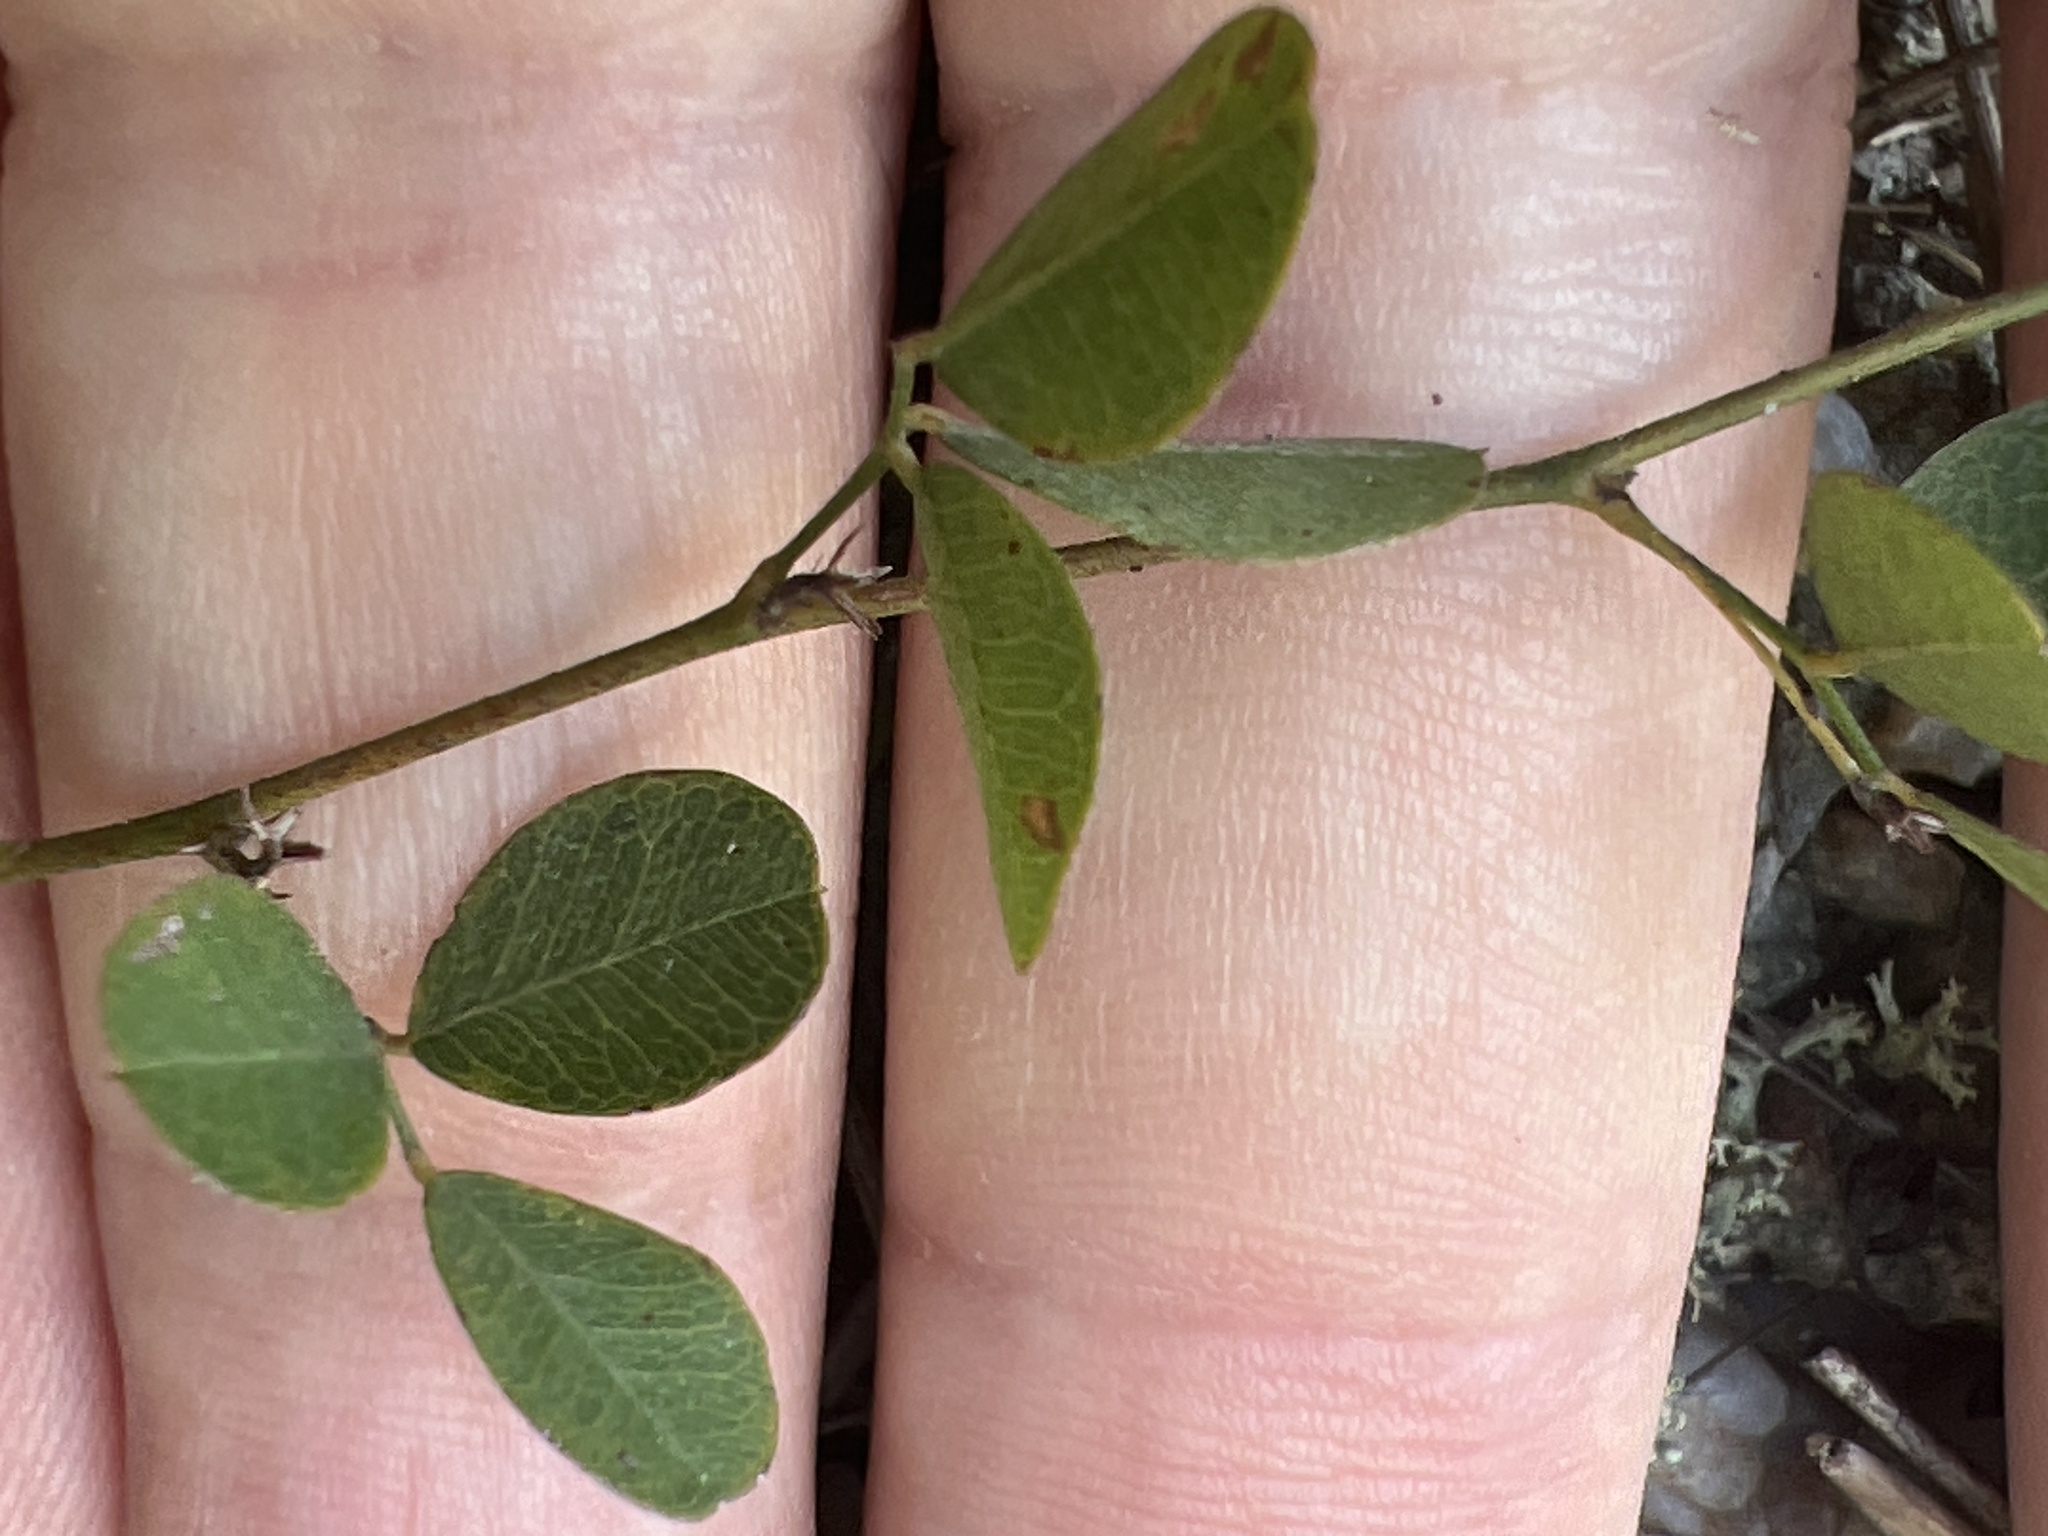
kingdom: Plantae
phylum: Tracheophyta
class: Magnoliopsida
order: Fabales
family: Fabaceae
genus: Lespedeza
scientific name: Lespedeza repens
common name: Creeping bush-clover
